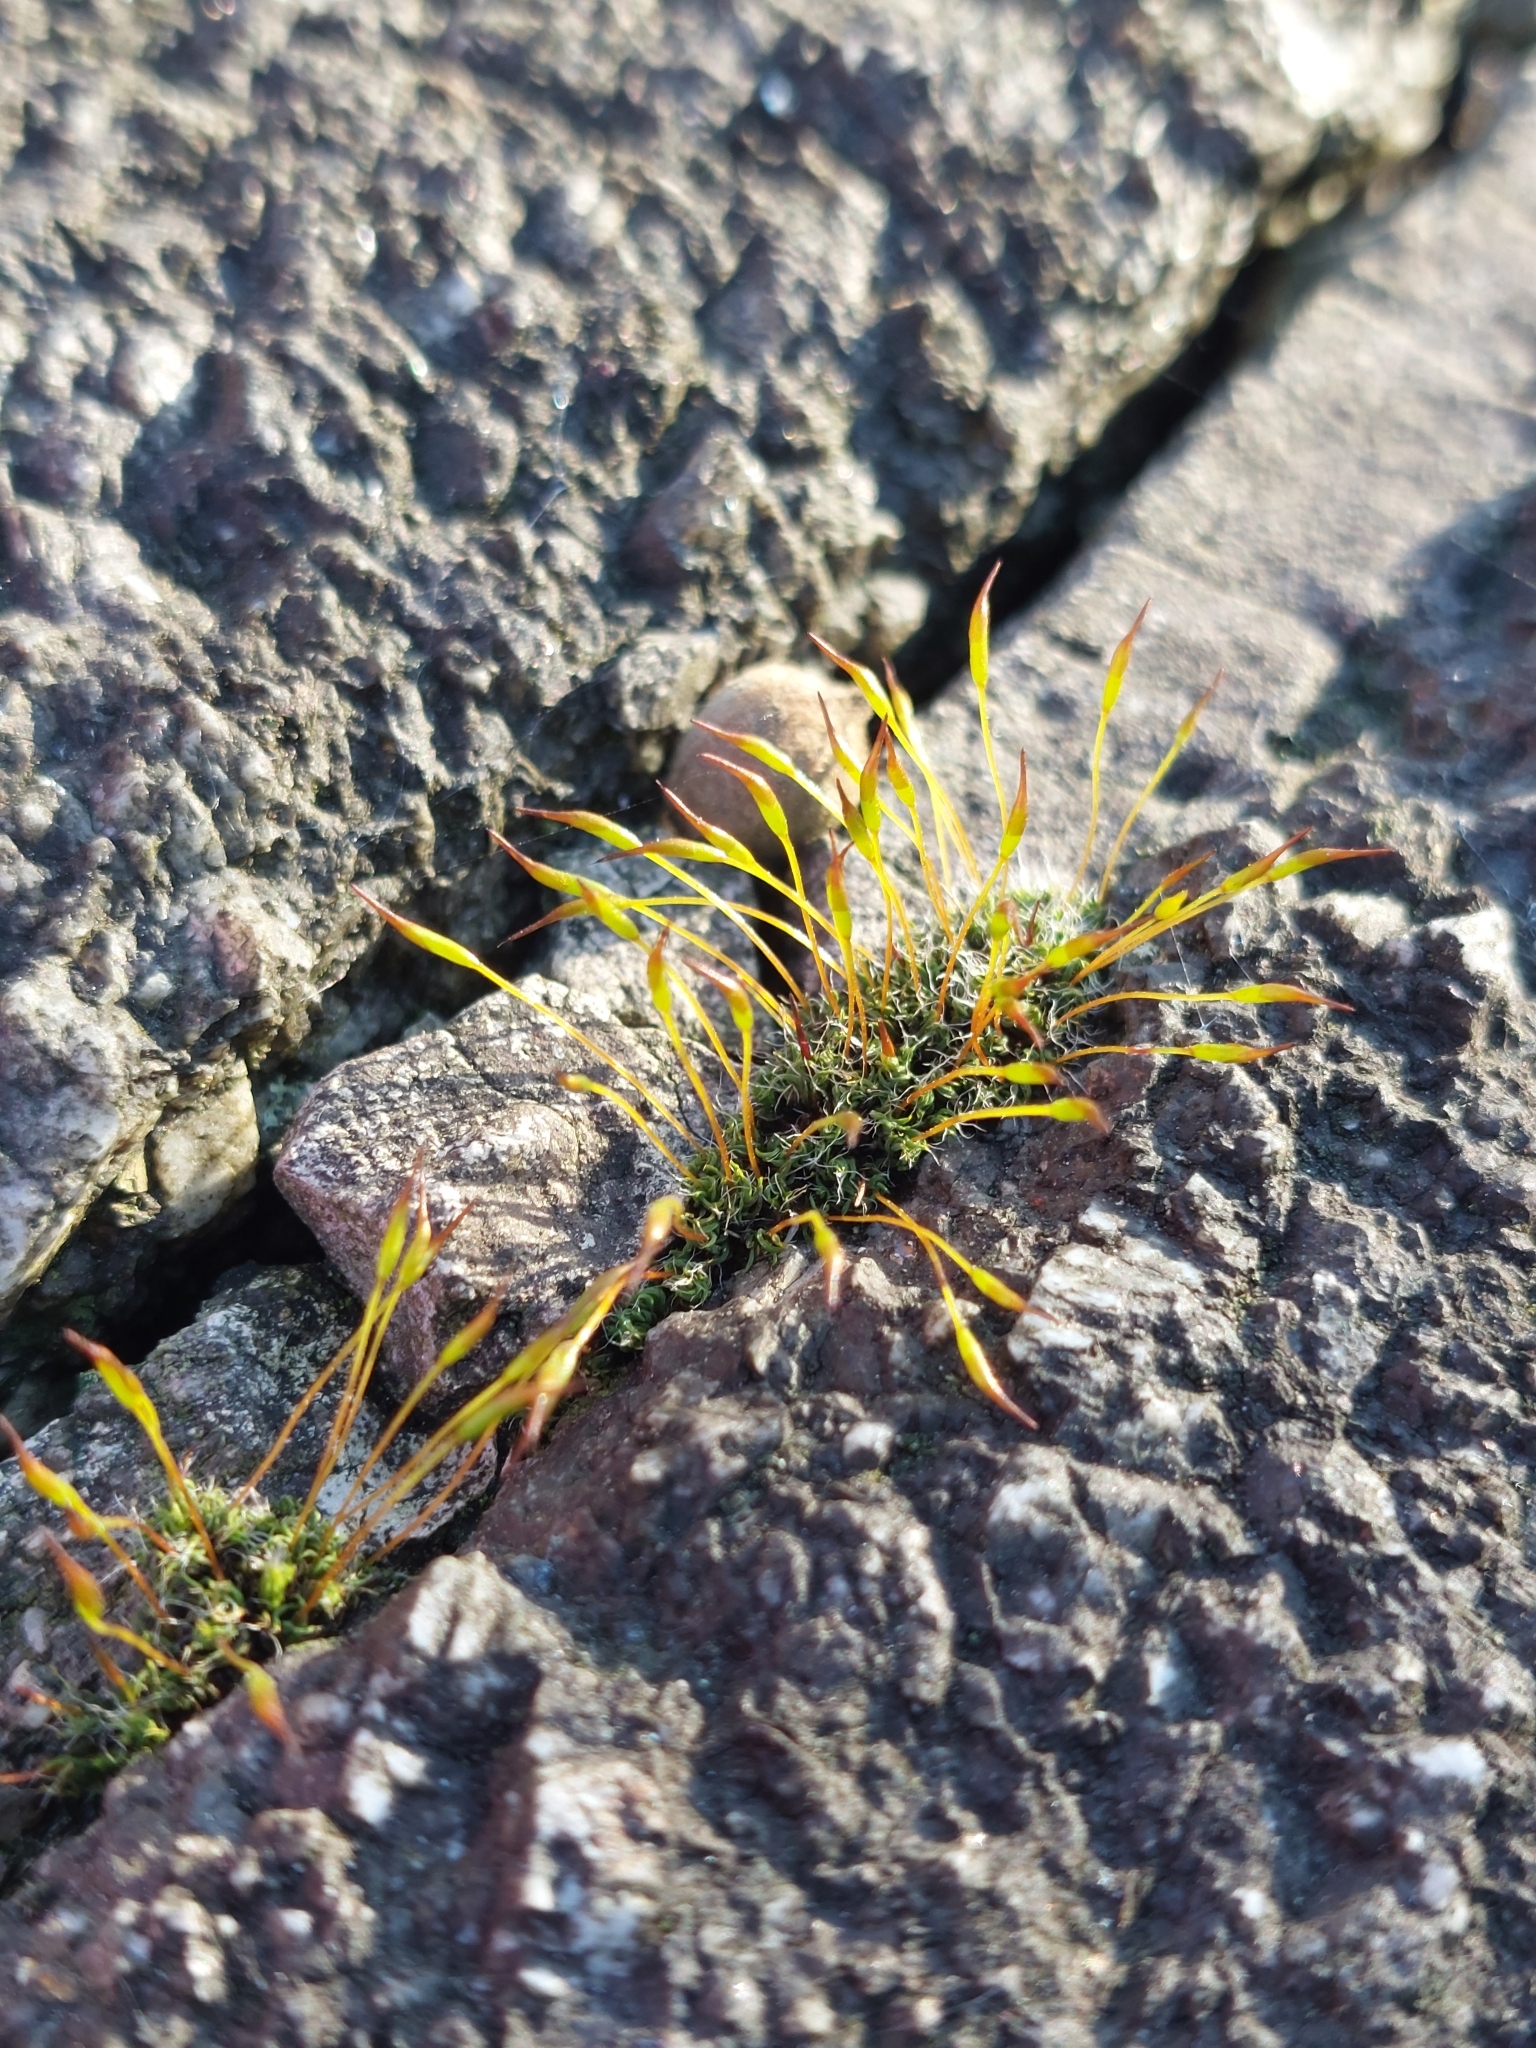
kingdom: Plantae
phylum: Bryophyta
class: Bryopsida
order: Pottiales
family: Pottiaceae
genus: Tortula
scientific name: Tortula muralis
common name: Wall screw-moss
